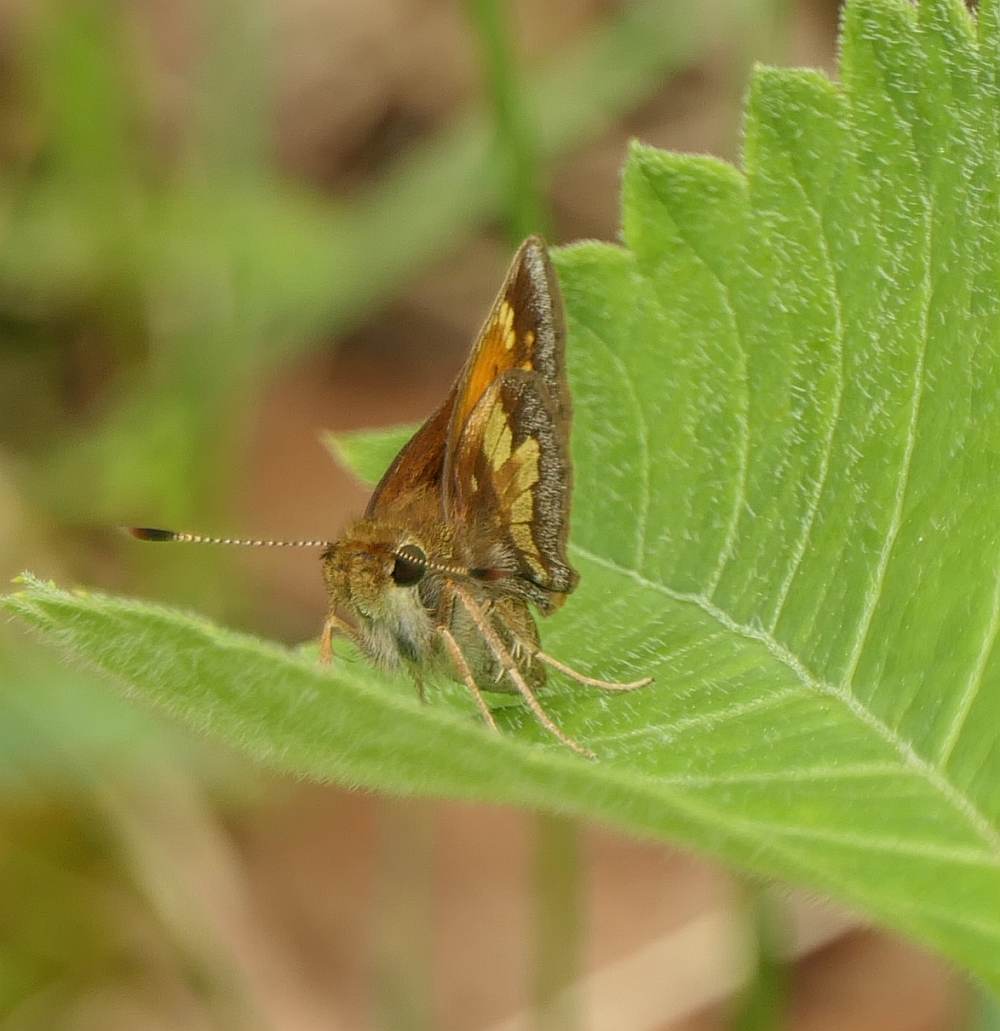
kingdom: Animalia
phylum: Arthropoda
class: Insecta
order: Lepidoptera
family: Hesperiidae
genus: Lon
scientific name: Lon hobomok
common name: Hobomok skipper
